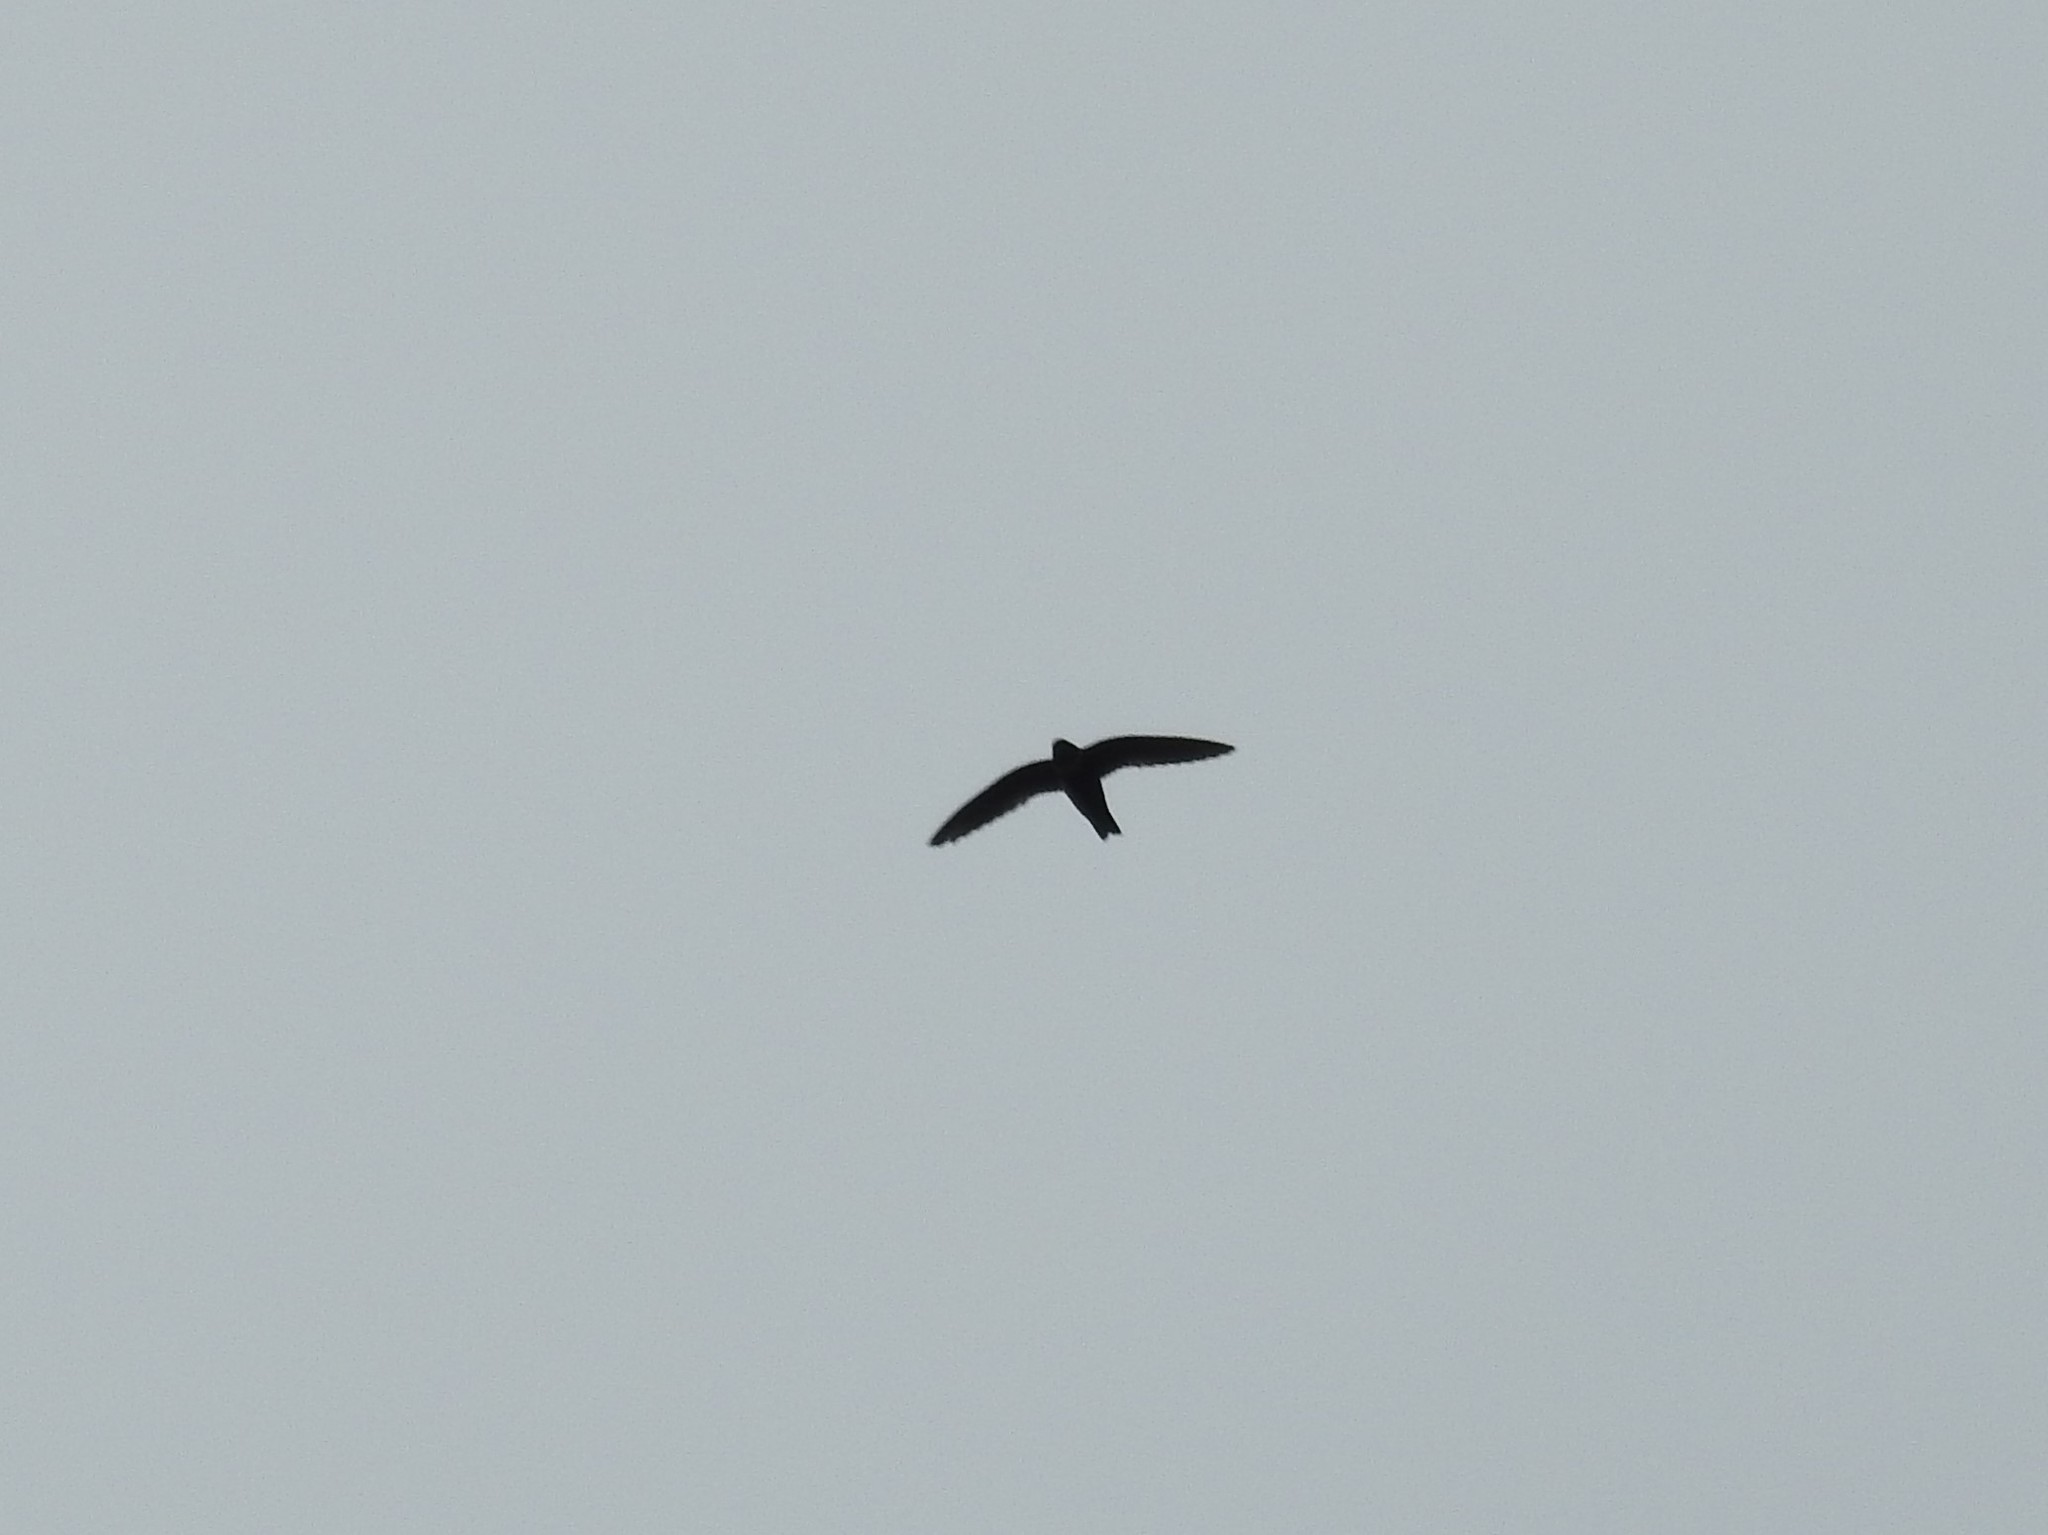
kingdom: Animalia
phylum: Chordata
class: Aves
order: Apodiformes
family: Apodidae
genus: Streptoprocne
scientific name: Streptoprocne zonaris
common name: White-collared swift
